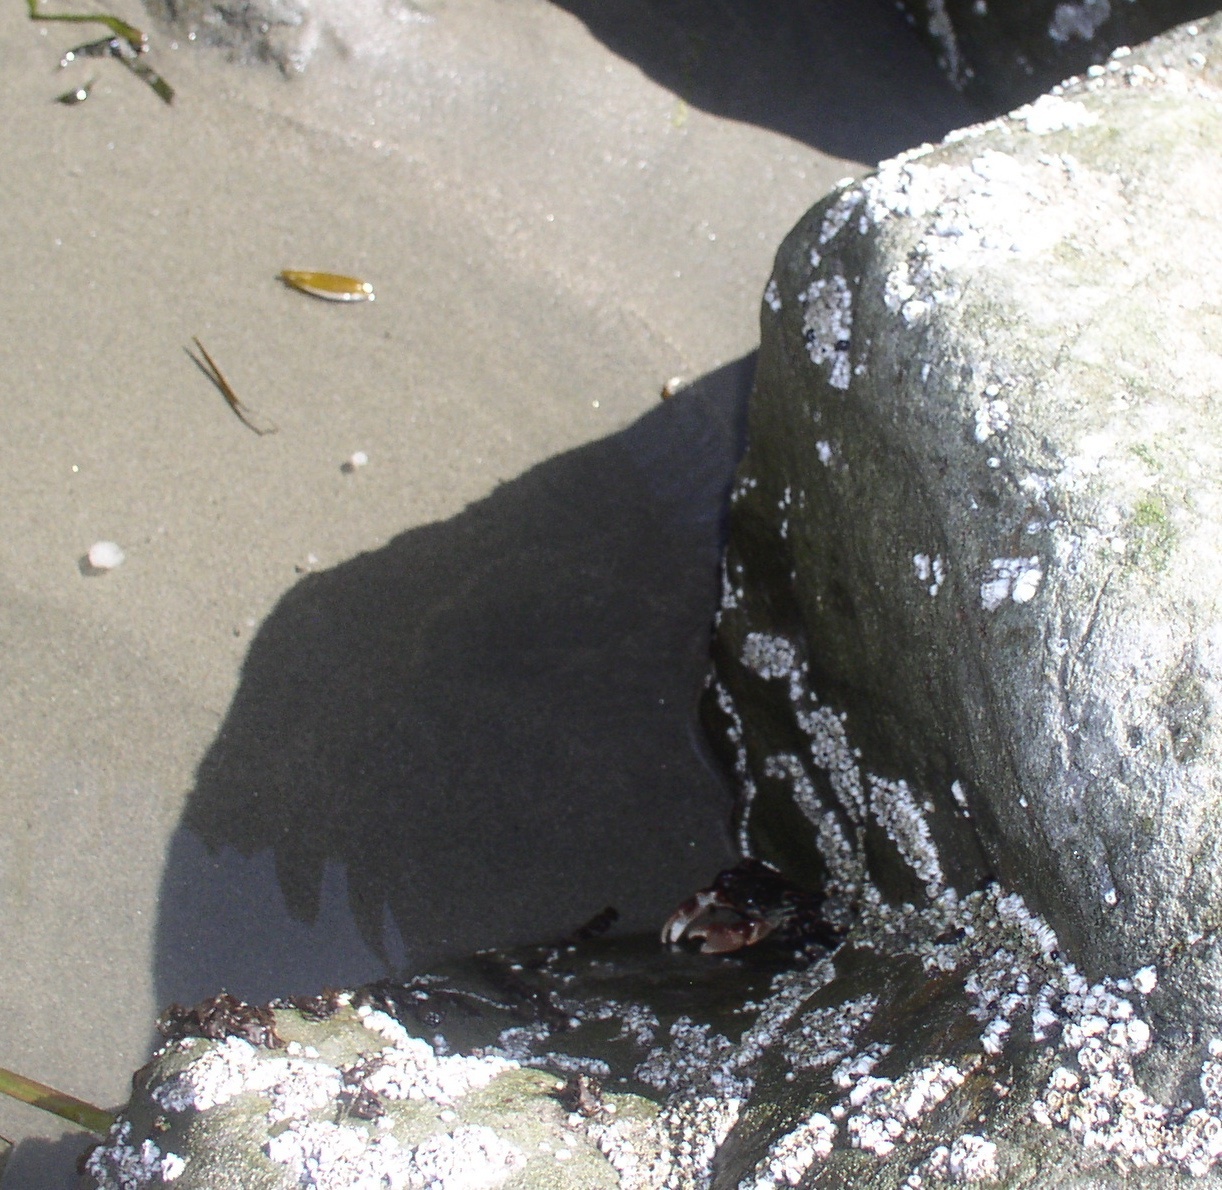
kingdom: Animalia
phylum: Arthropoda
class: Malacostraca
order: Decapoda
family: Grapsidae
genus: Pachygrapsus
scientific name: Pachygrapsus crassipes
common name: Striped shore crab
